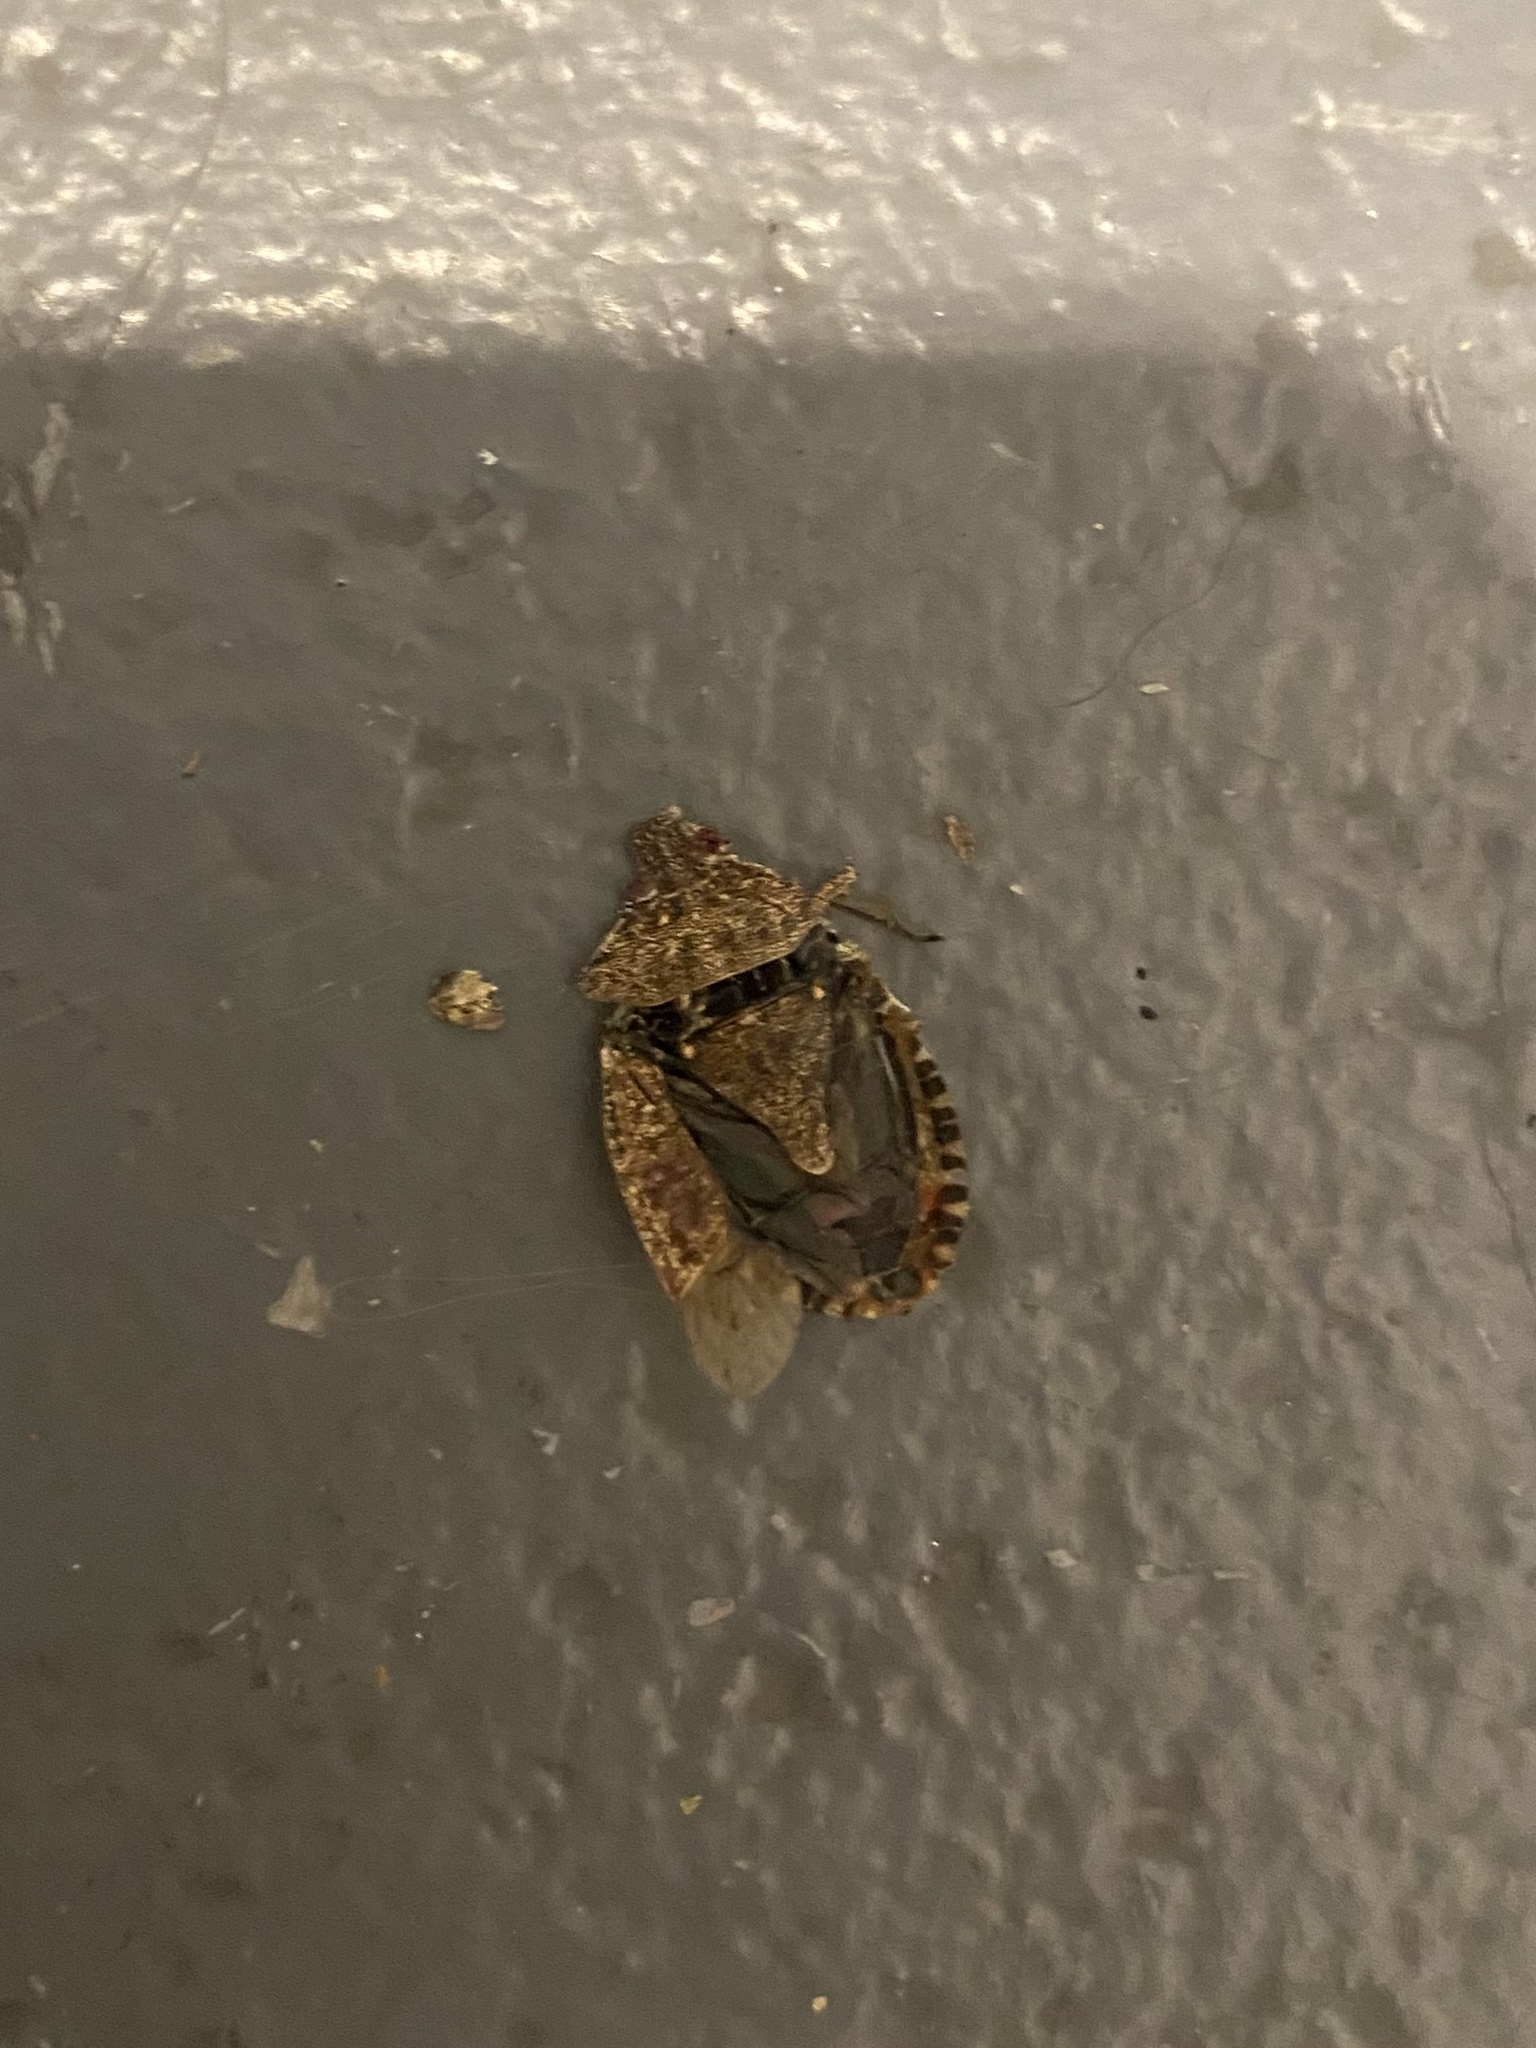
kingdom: Animalia
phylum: Arthropoda
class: Insecta
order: Hemiptera
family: Pentatomidae
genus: Halyomorpha
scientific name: Halyomorpha halys
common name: Brown marmorated stink bug
